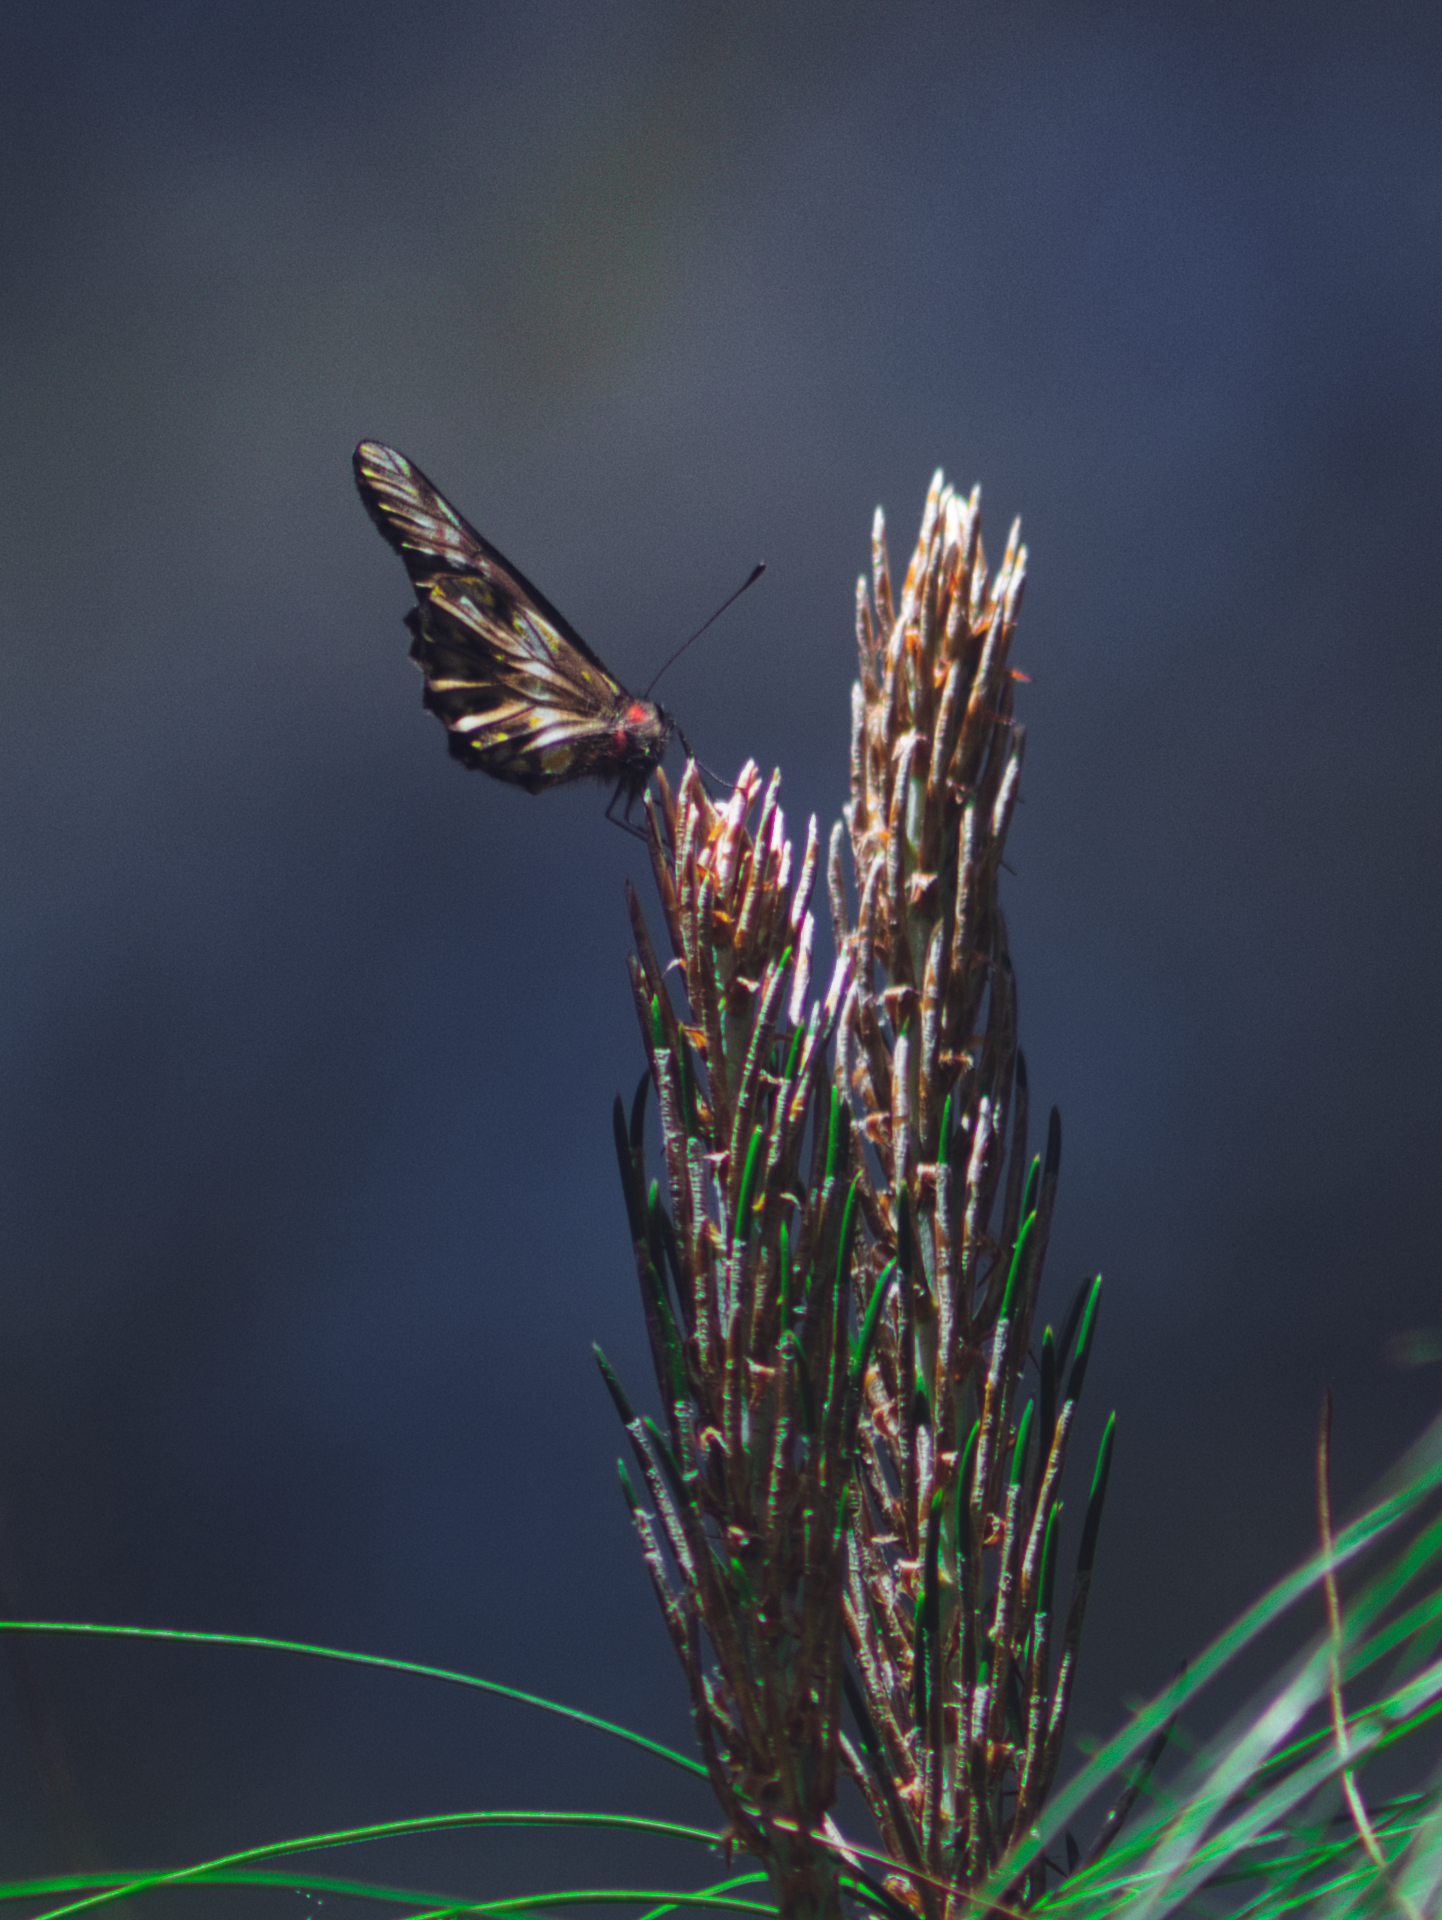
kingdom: Animalia
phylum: Arthropoda
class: Insecta
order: Lepidoptera
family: Pieridae
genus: Archonias
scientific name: Archonias flisa
